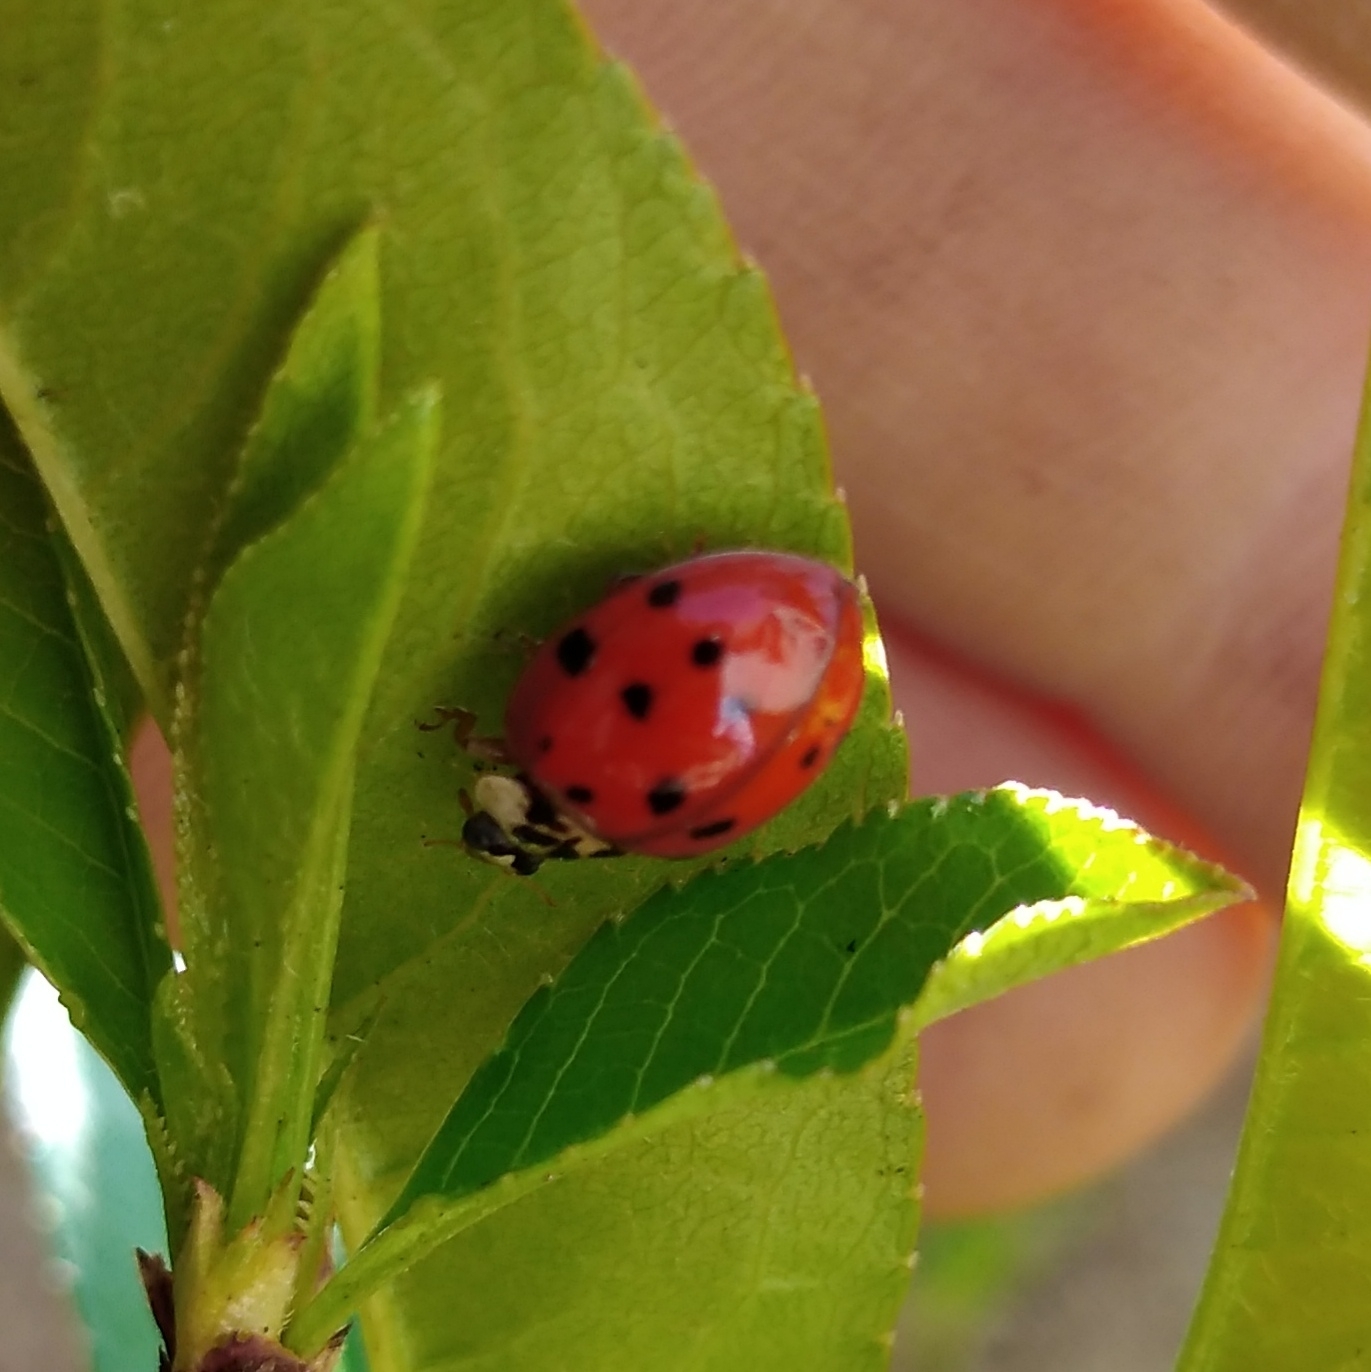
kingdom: Animalia
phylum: Arthropoda
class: Insecta
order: Coleoptera
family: Coccinellidae
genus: Harmonia
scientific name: Harmonia axyridis
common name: Harlequin ladybird
